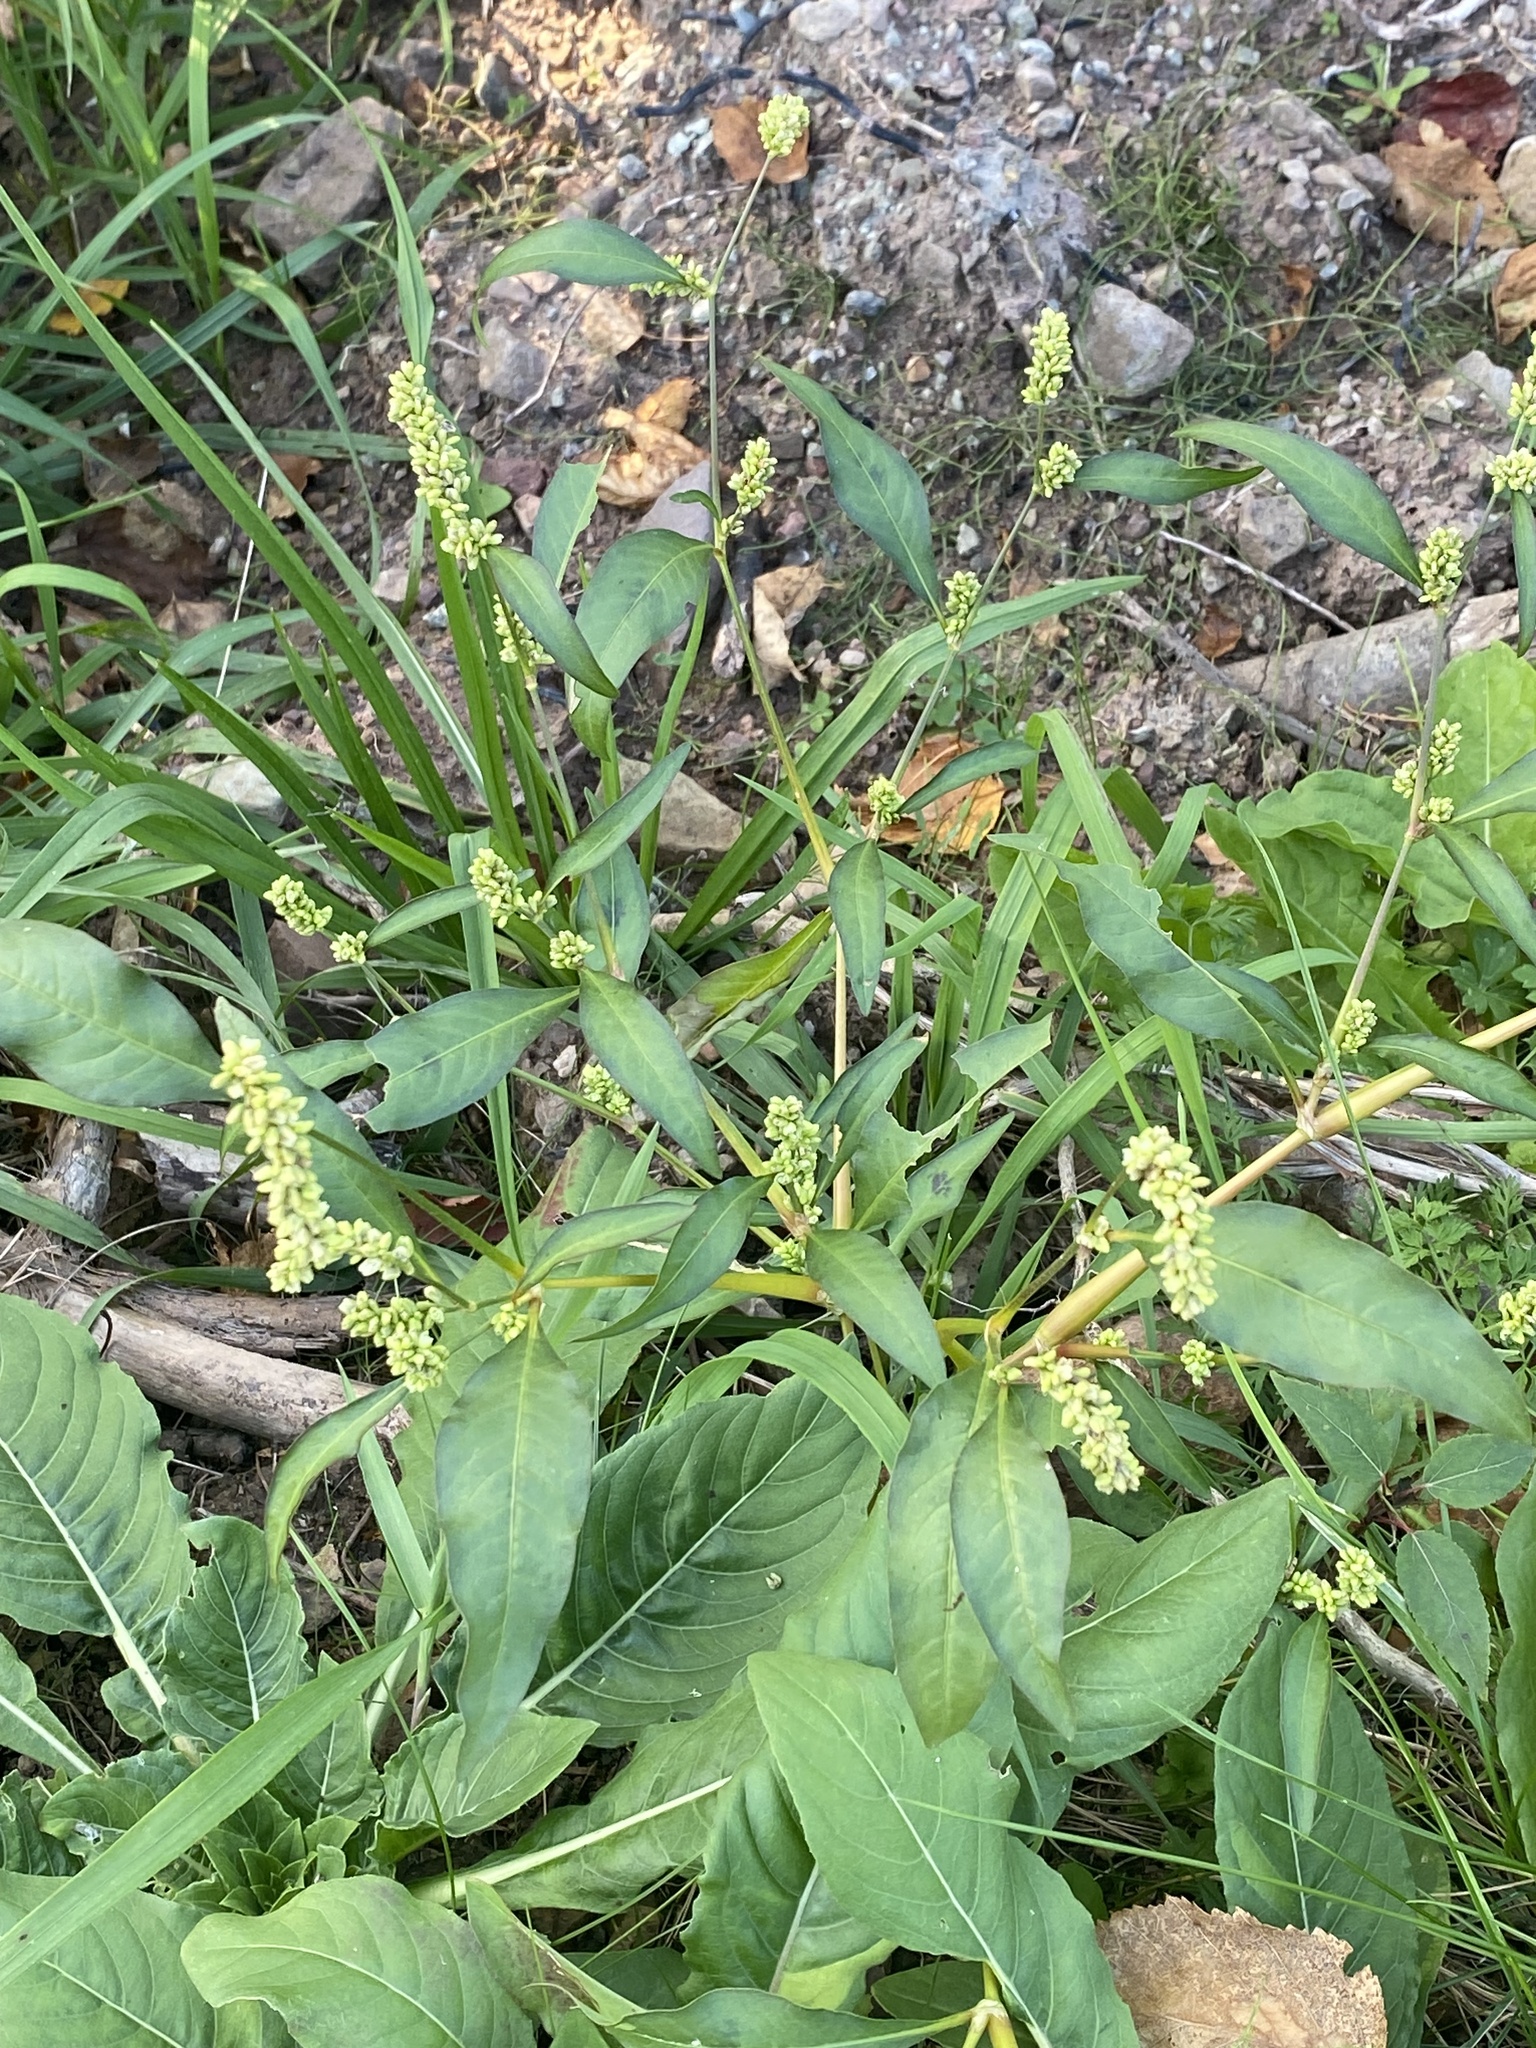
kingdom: Plantae
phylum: Tracheophyta
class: Magnoliopsida
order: Caryophyllales
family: Polygonaceae
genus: Persicaria
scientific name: Persicaria lapathifolia
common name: Curlytop knotweed
